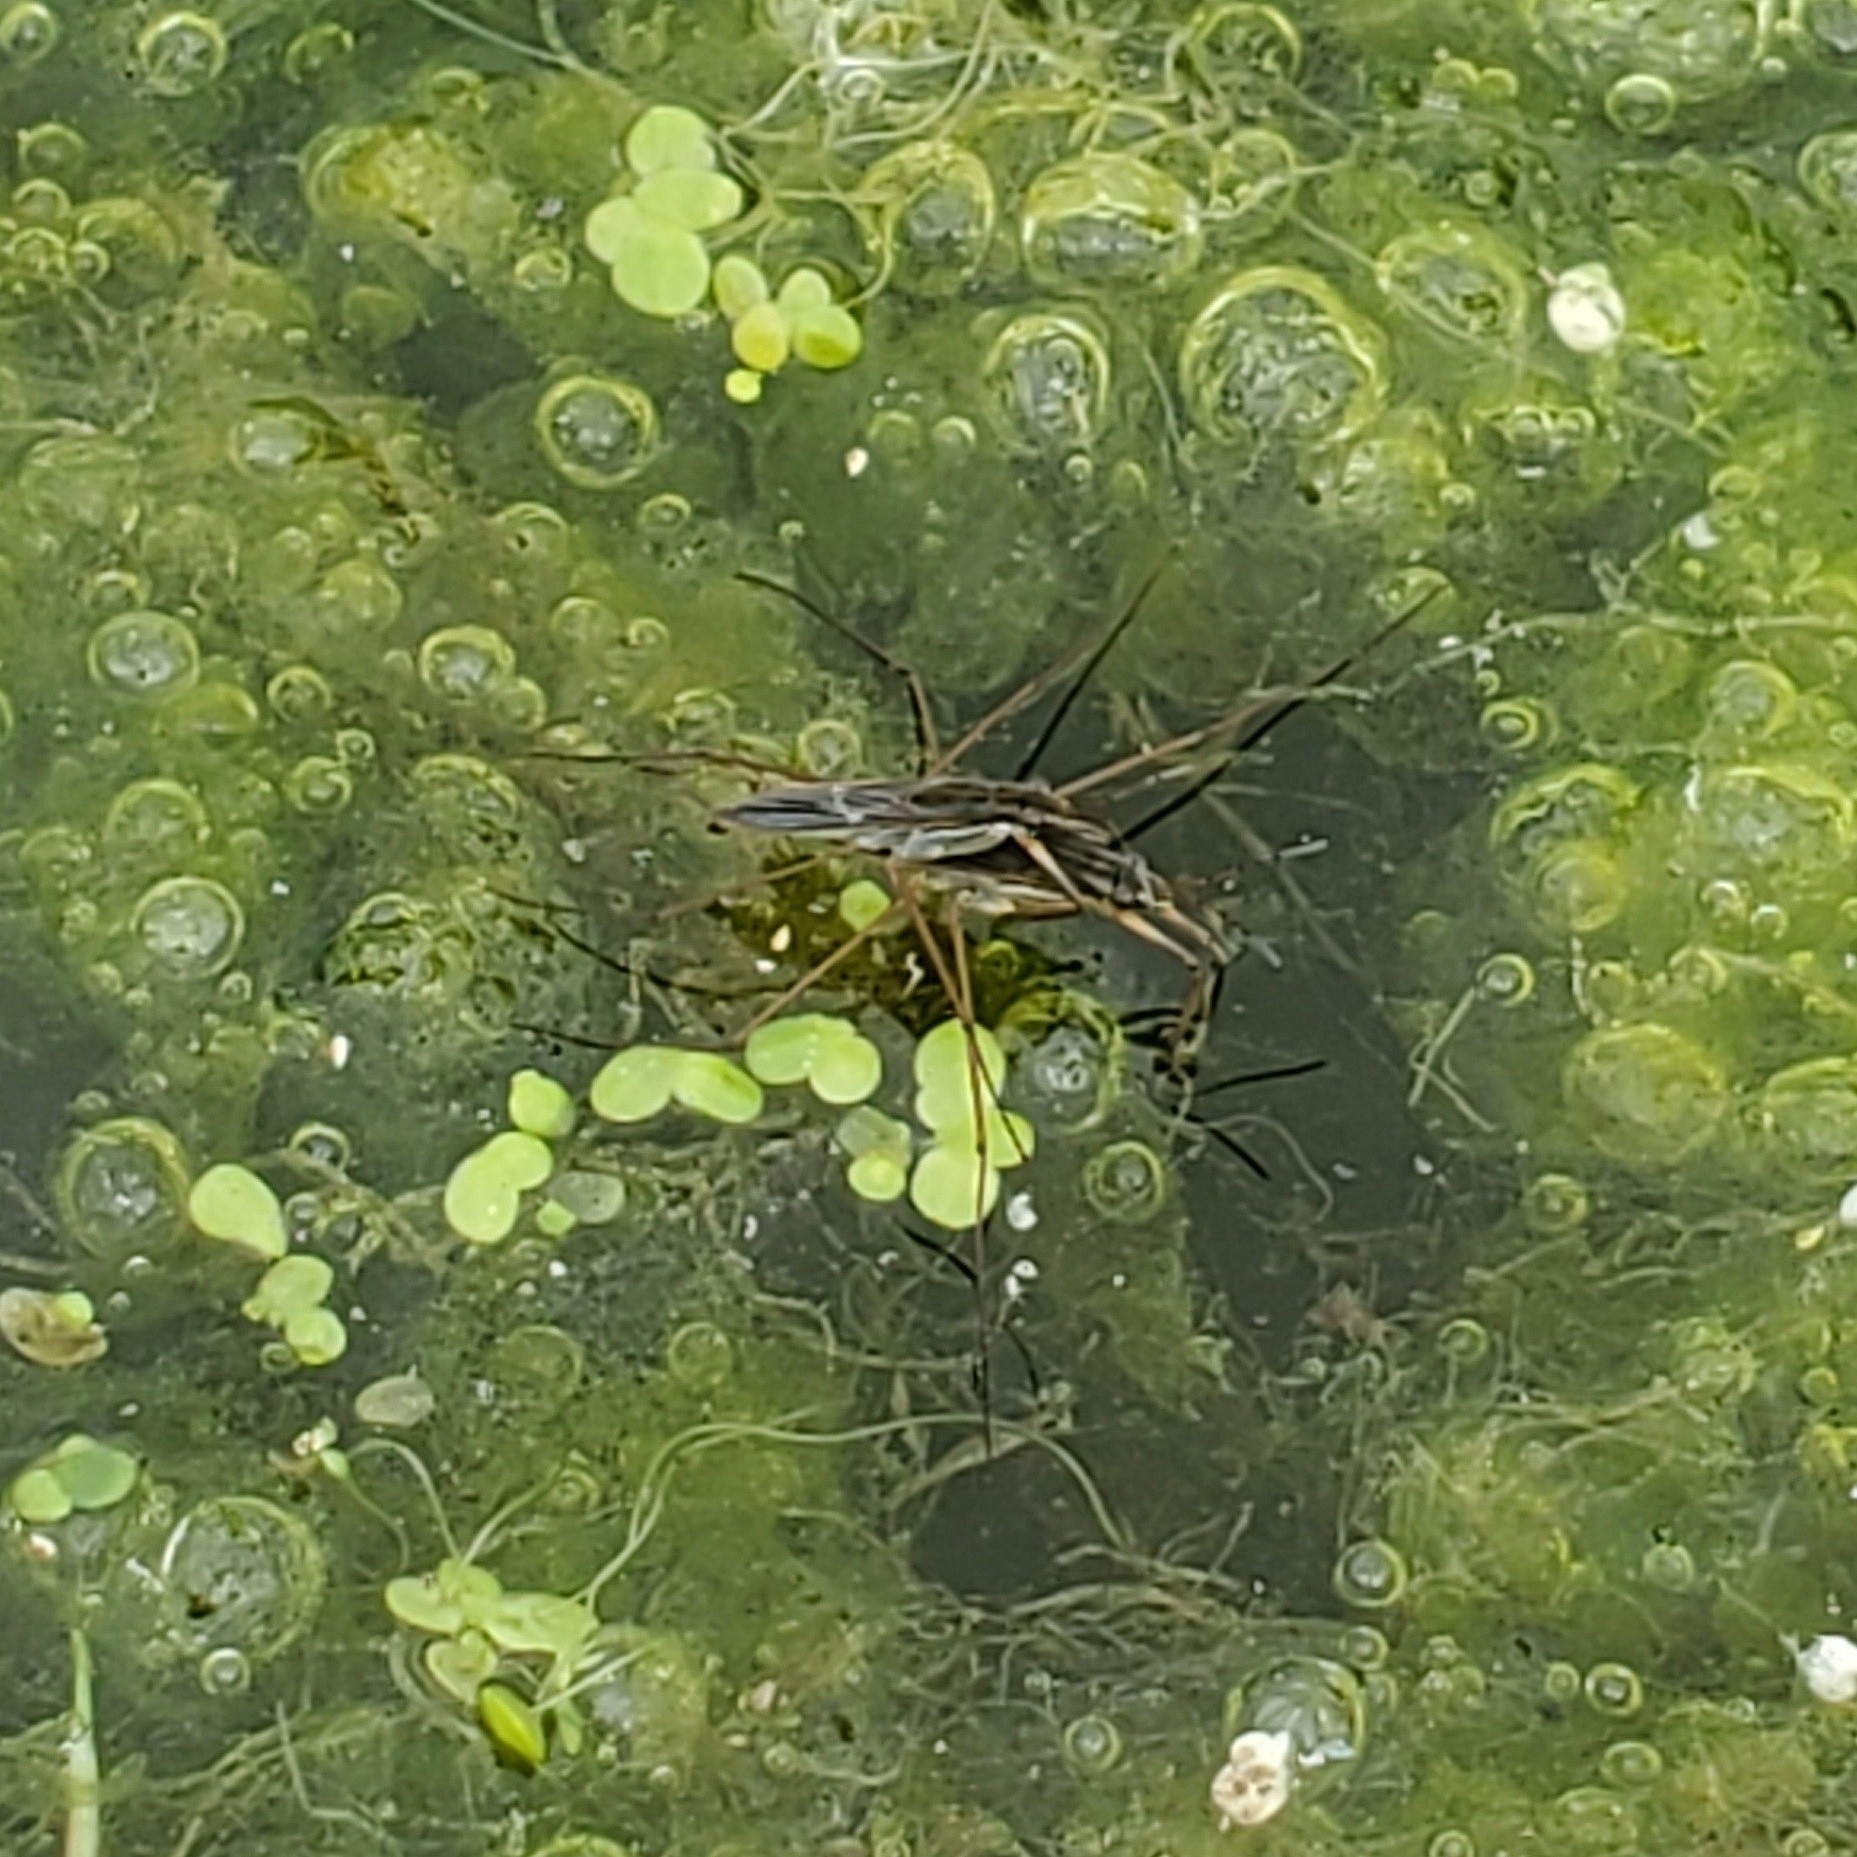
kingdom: Animalia
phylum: Arthropoda
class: Insecta
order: Hemiptera
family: Gerridae
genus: Gerris
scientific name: Gerris
